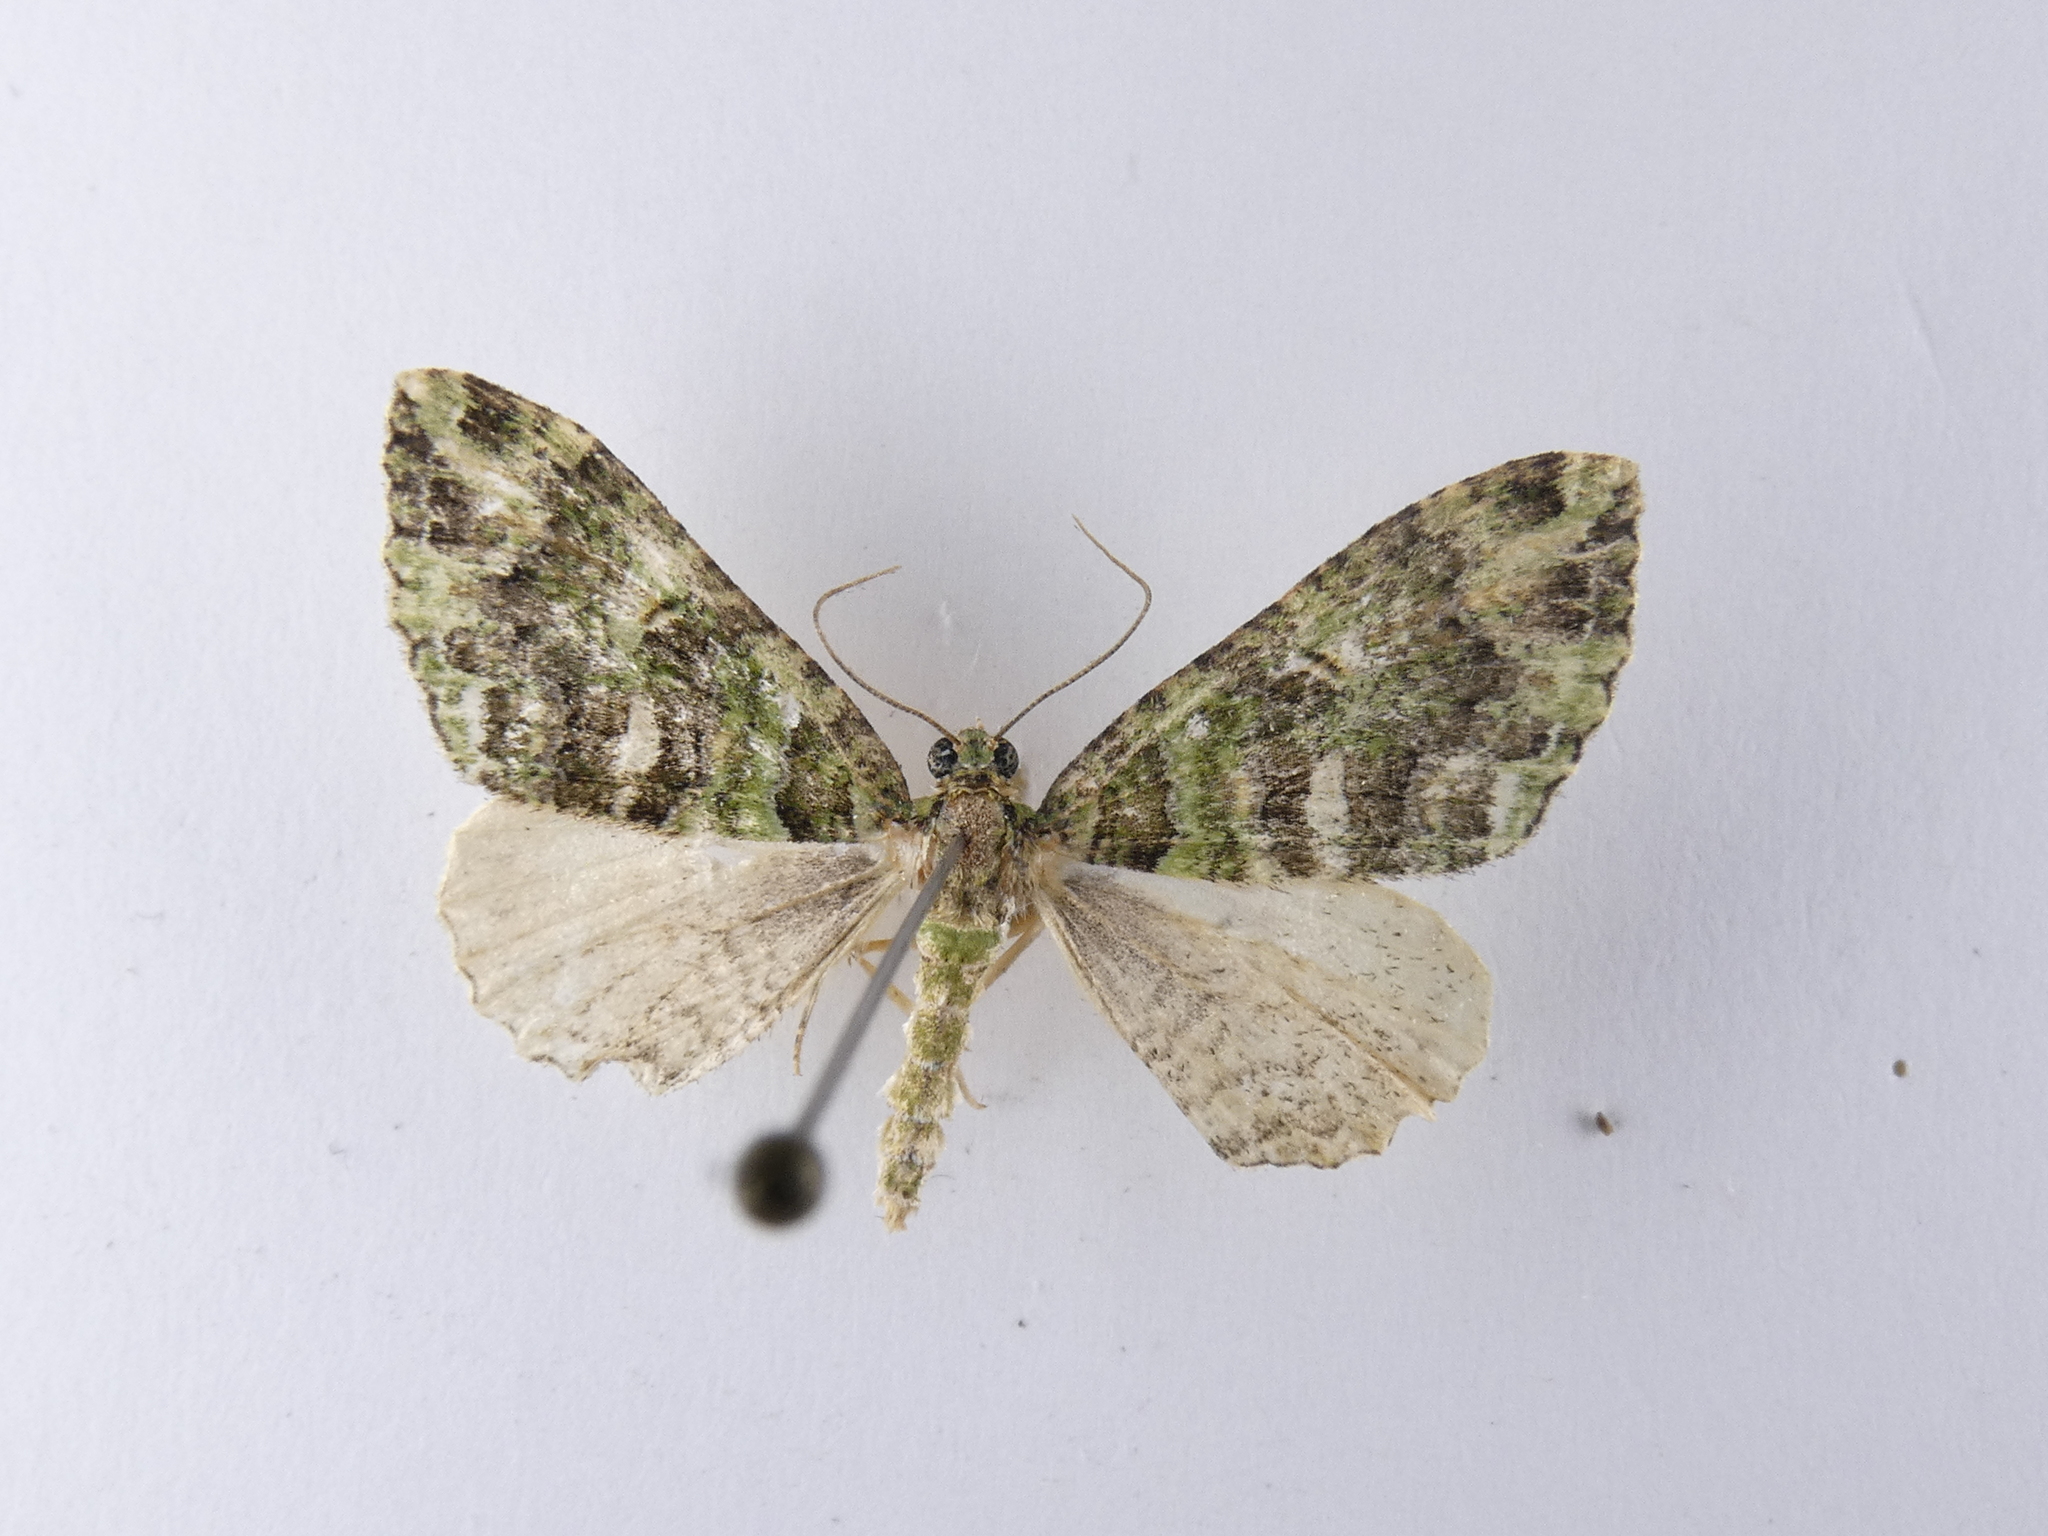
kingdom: Animalia
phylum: Arthropoda
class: Insecta
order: Lepidoptera
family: Geometridae
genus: Austrocidaria
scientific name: Austrocidaria similata
